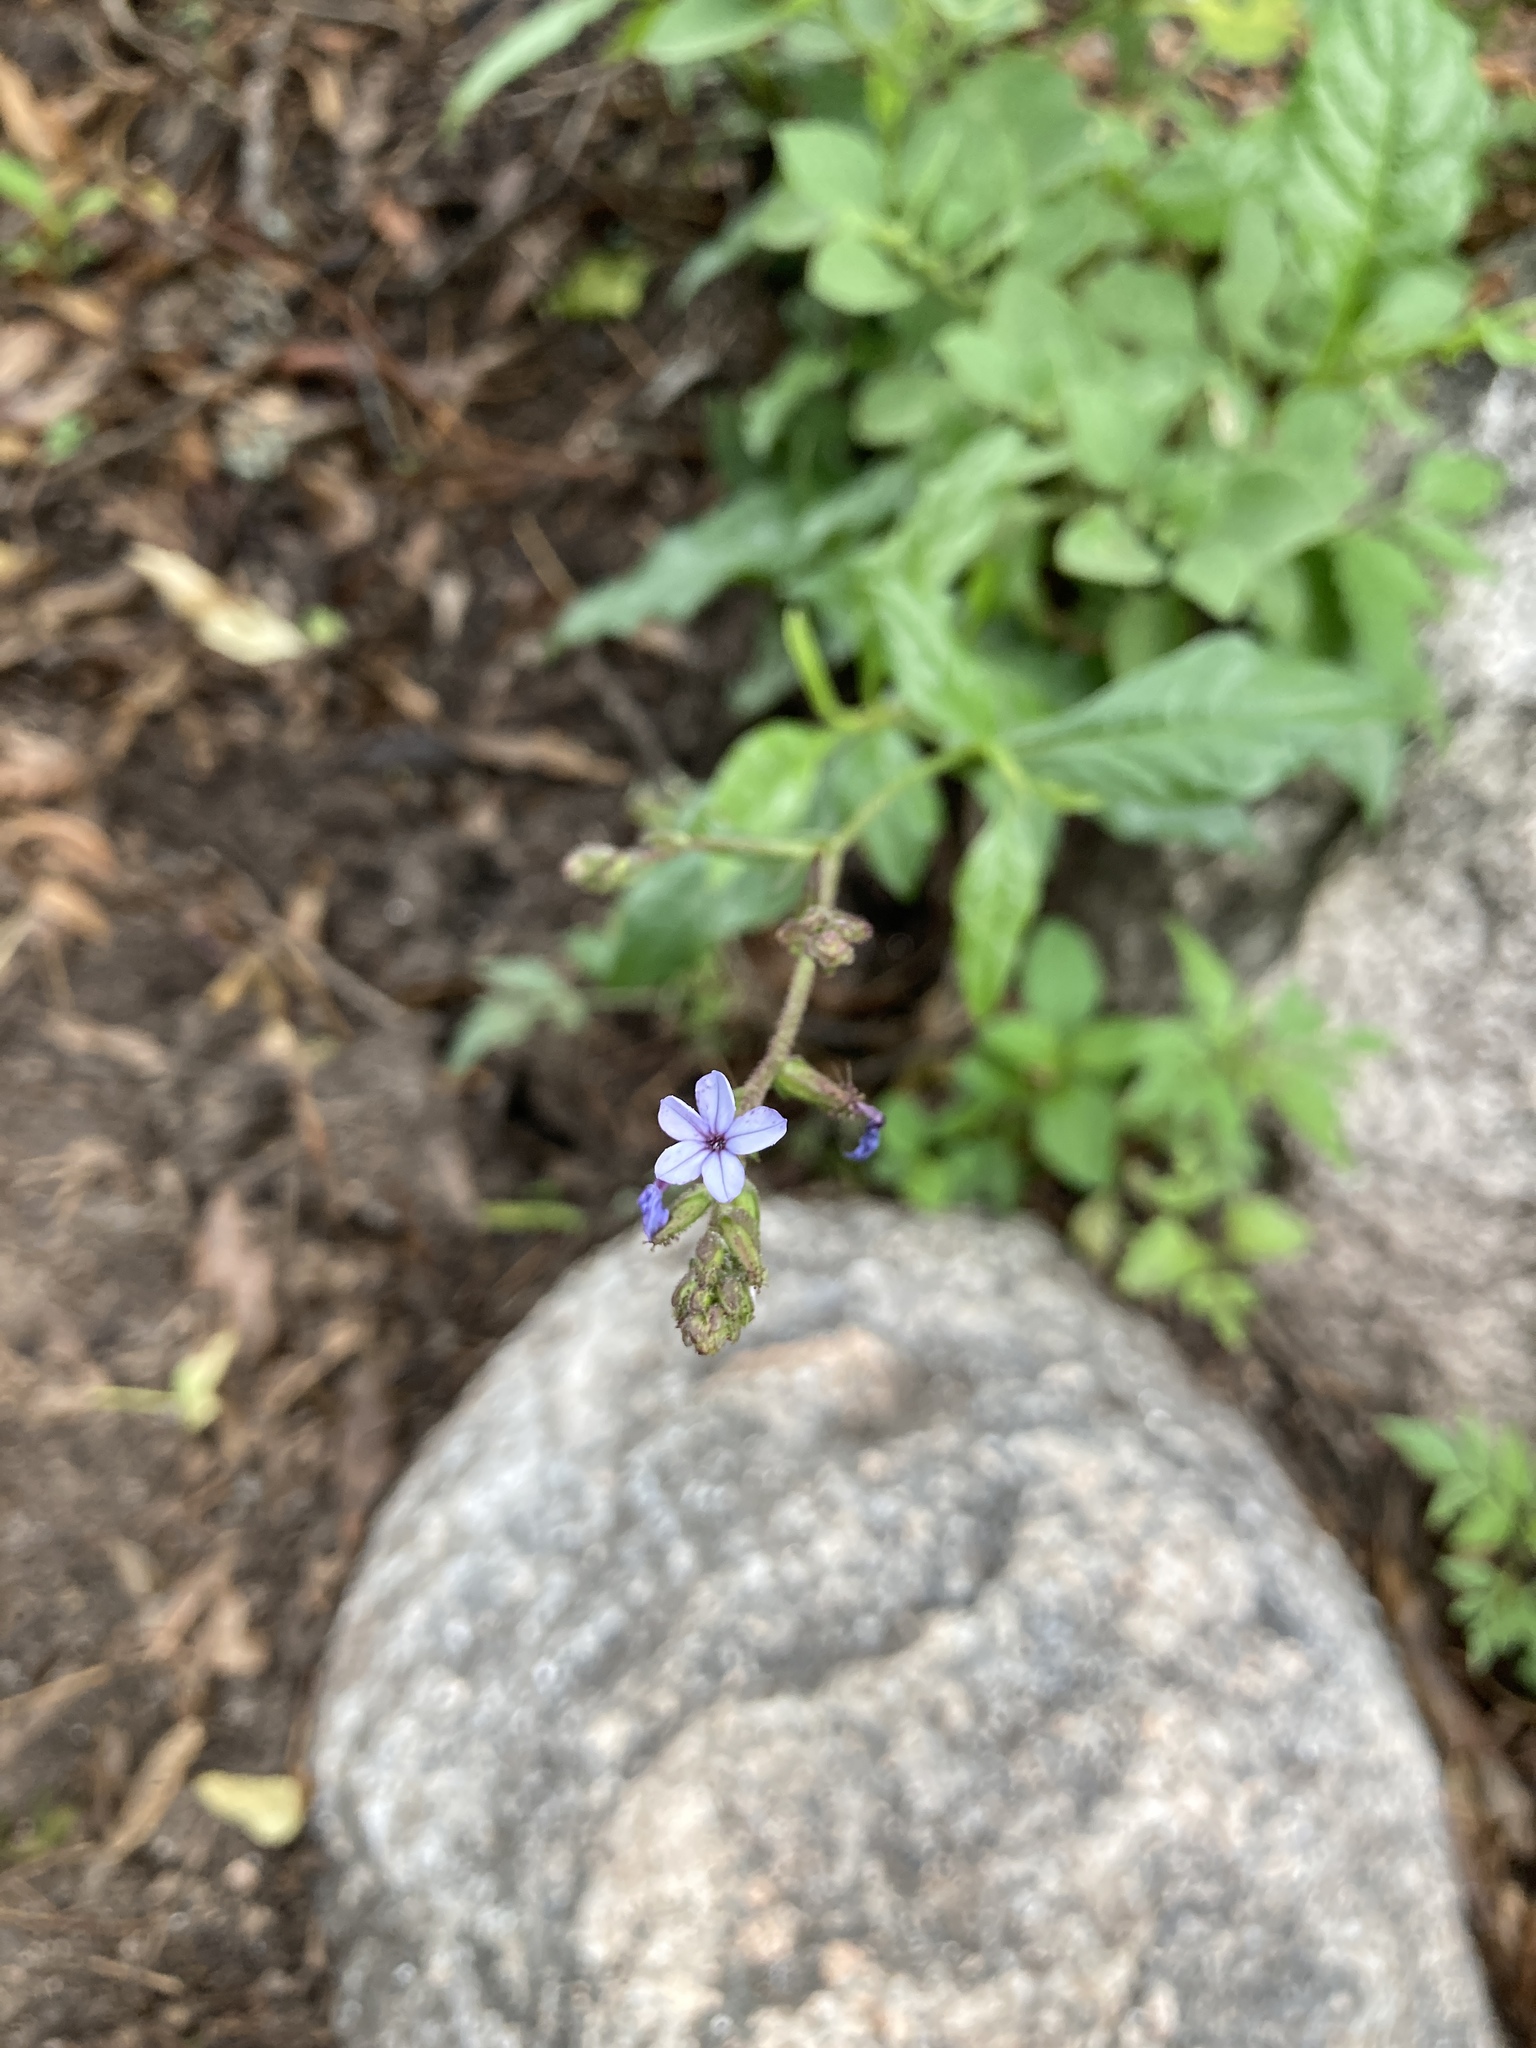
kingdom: Plantae
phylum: Tracheophyta
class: Magnoliopsida
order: Caryophyllales
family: Plumbaginaceae
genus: Plumbago
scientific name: Plumbago caerulea
